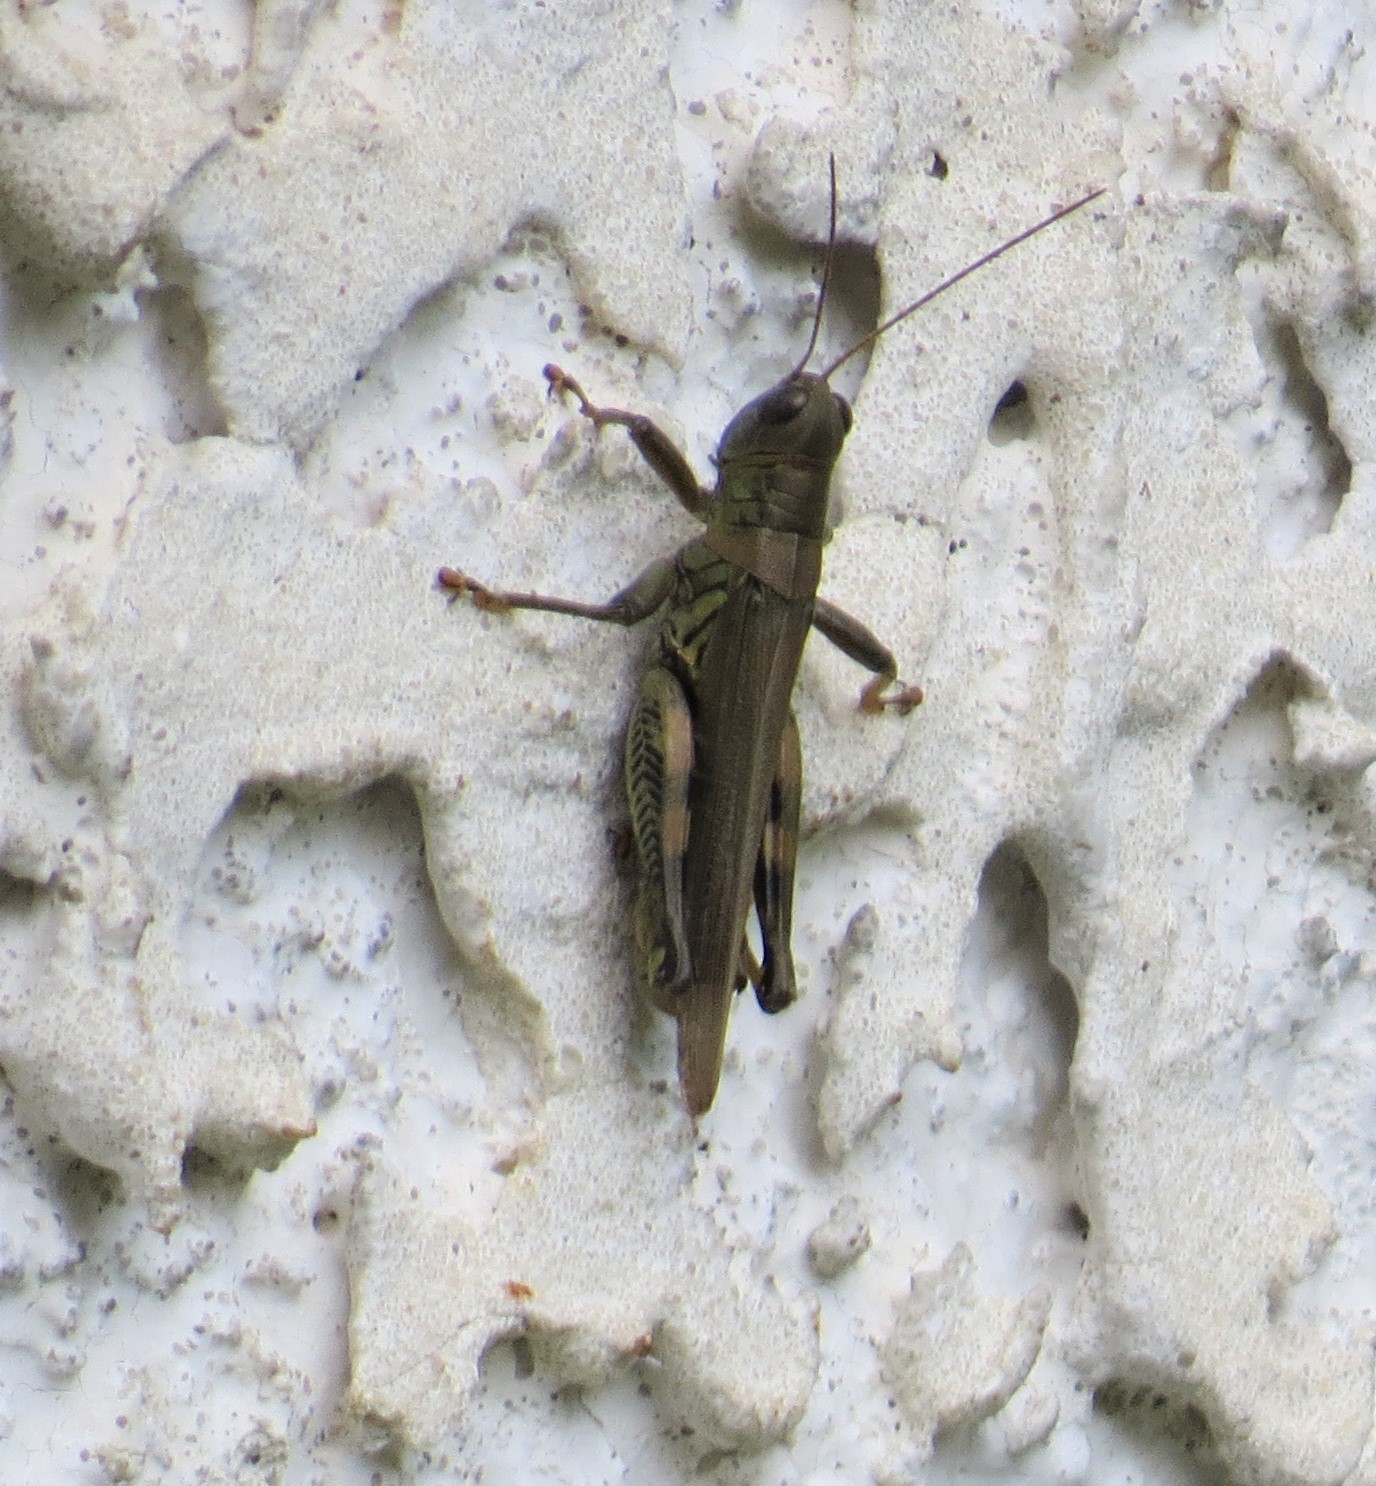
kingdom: Animalia
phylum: Arthropoda
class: Insecta
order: Orthoptera
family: Acrididae
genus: Melanoplus
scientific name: Melanoplus differentialis
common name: Differential grasshopper
